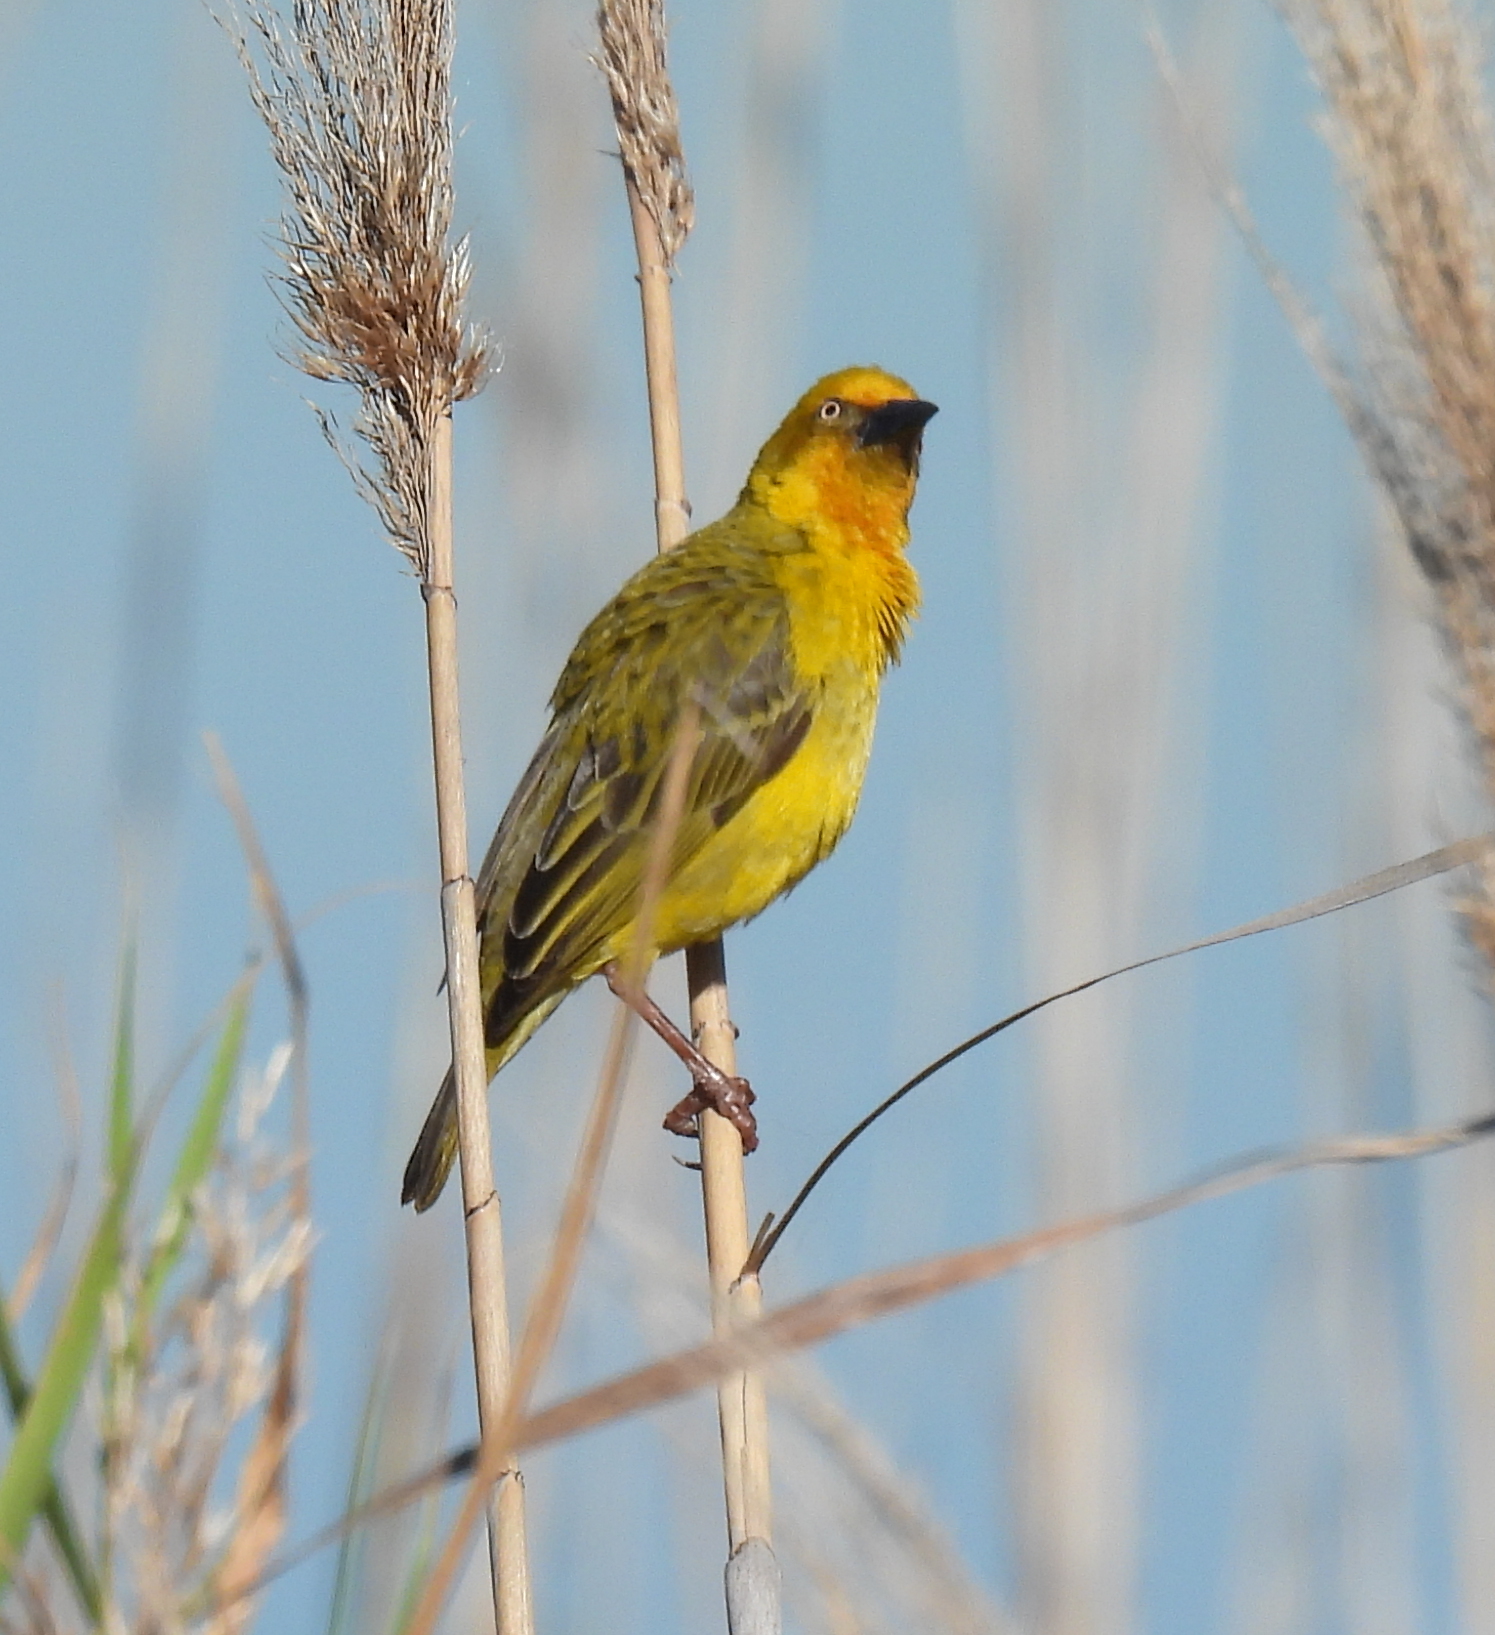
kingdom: Animalia
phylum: Chordata
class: Aves
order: Passeriformes
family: Ploceidae
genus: Ploceus
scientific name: Ploceus capensis
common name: Cape weaver
